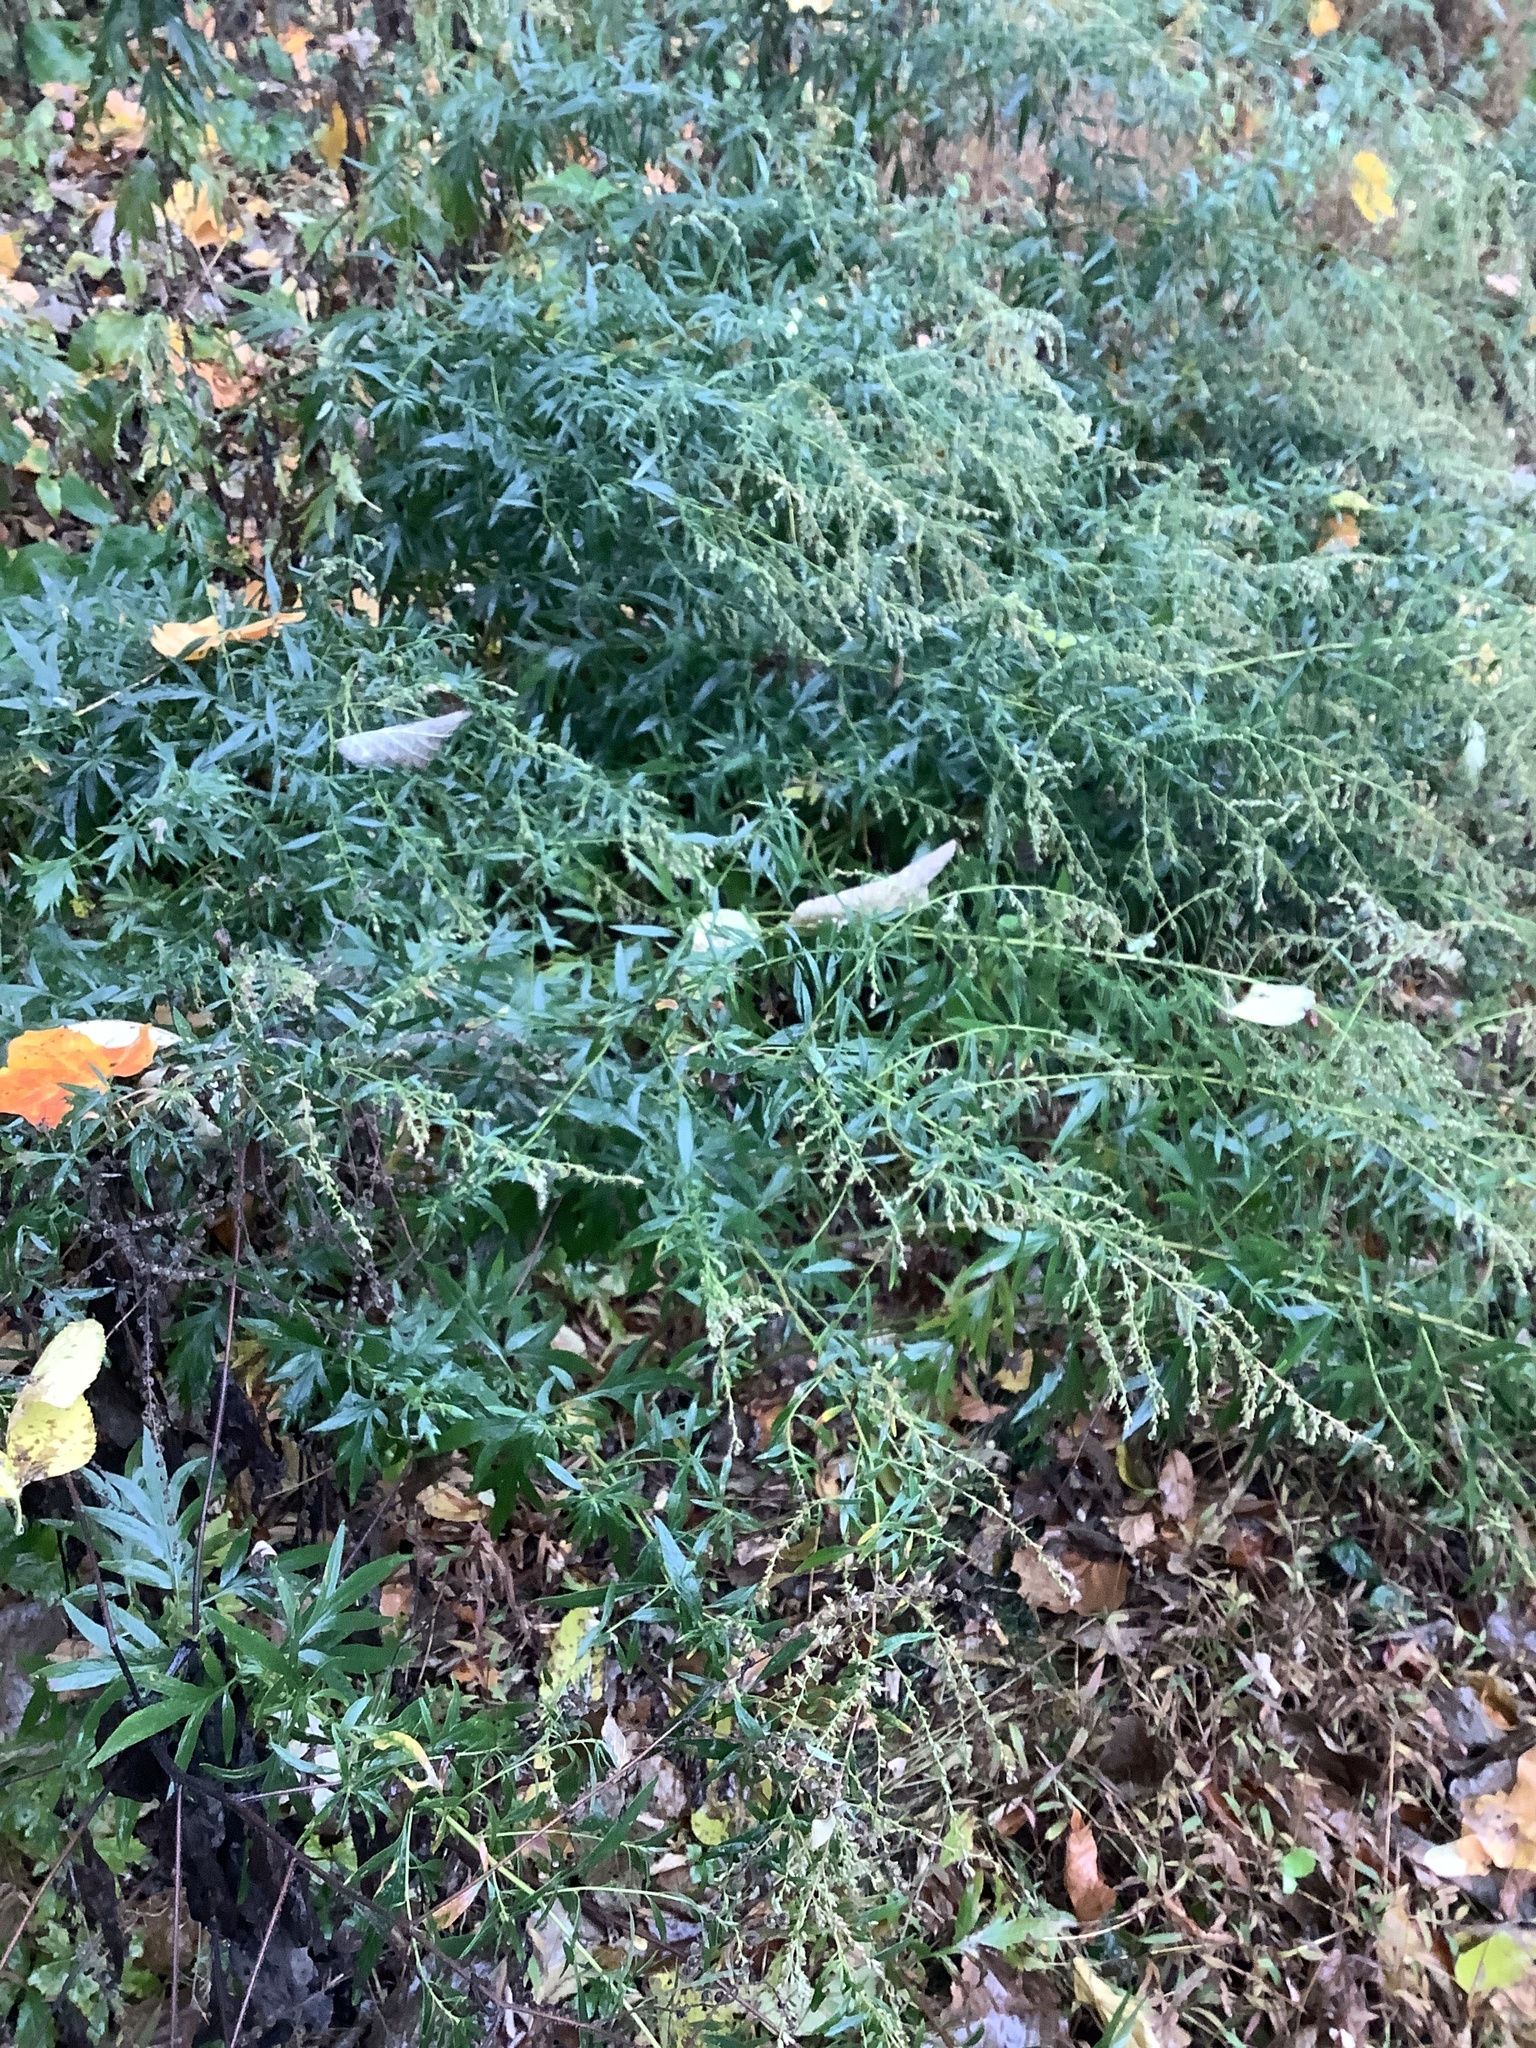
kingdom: Plantae
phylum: Tracheophyta
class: Magnoliopsida
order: Asterales
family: Asteraceae
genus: Artemisia
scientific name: Artemisia vulgaris
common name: Mugwort
